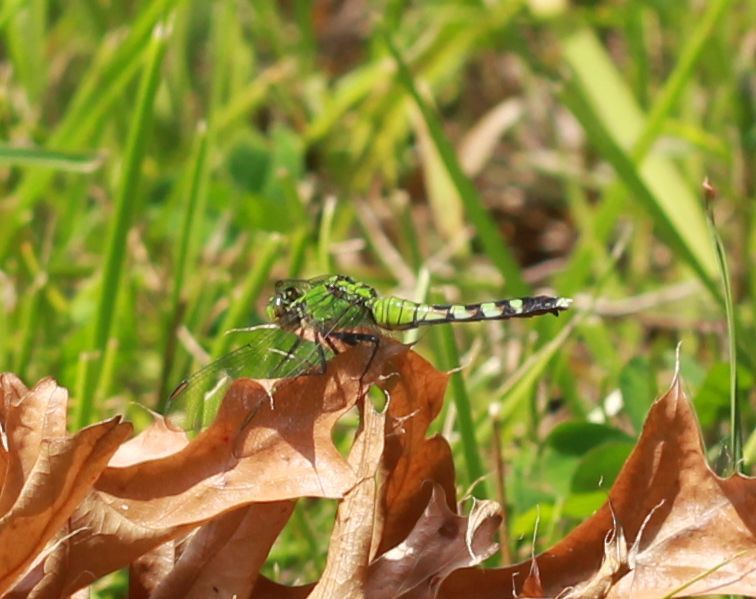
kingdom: Animalia
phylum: Arthropoda
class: Insecta
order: Odonata
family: Libellulidae
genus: Erythemis
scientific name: Erythemis simplicicollis
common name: Eastern pondhawk
